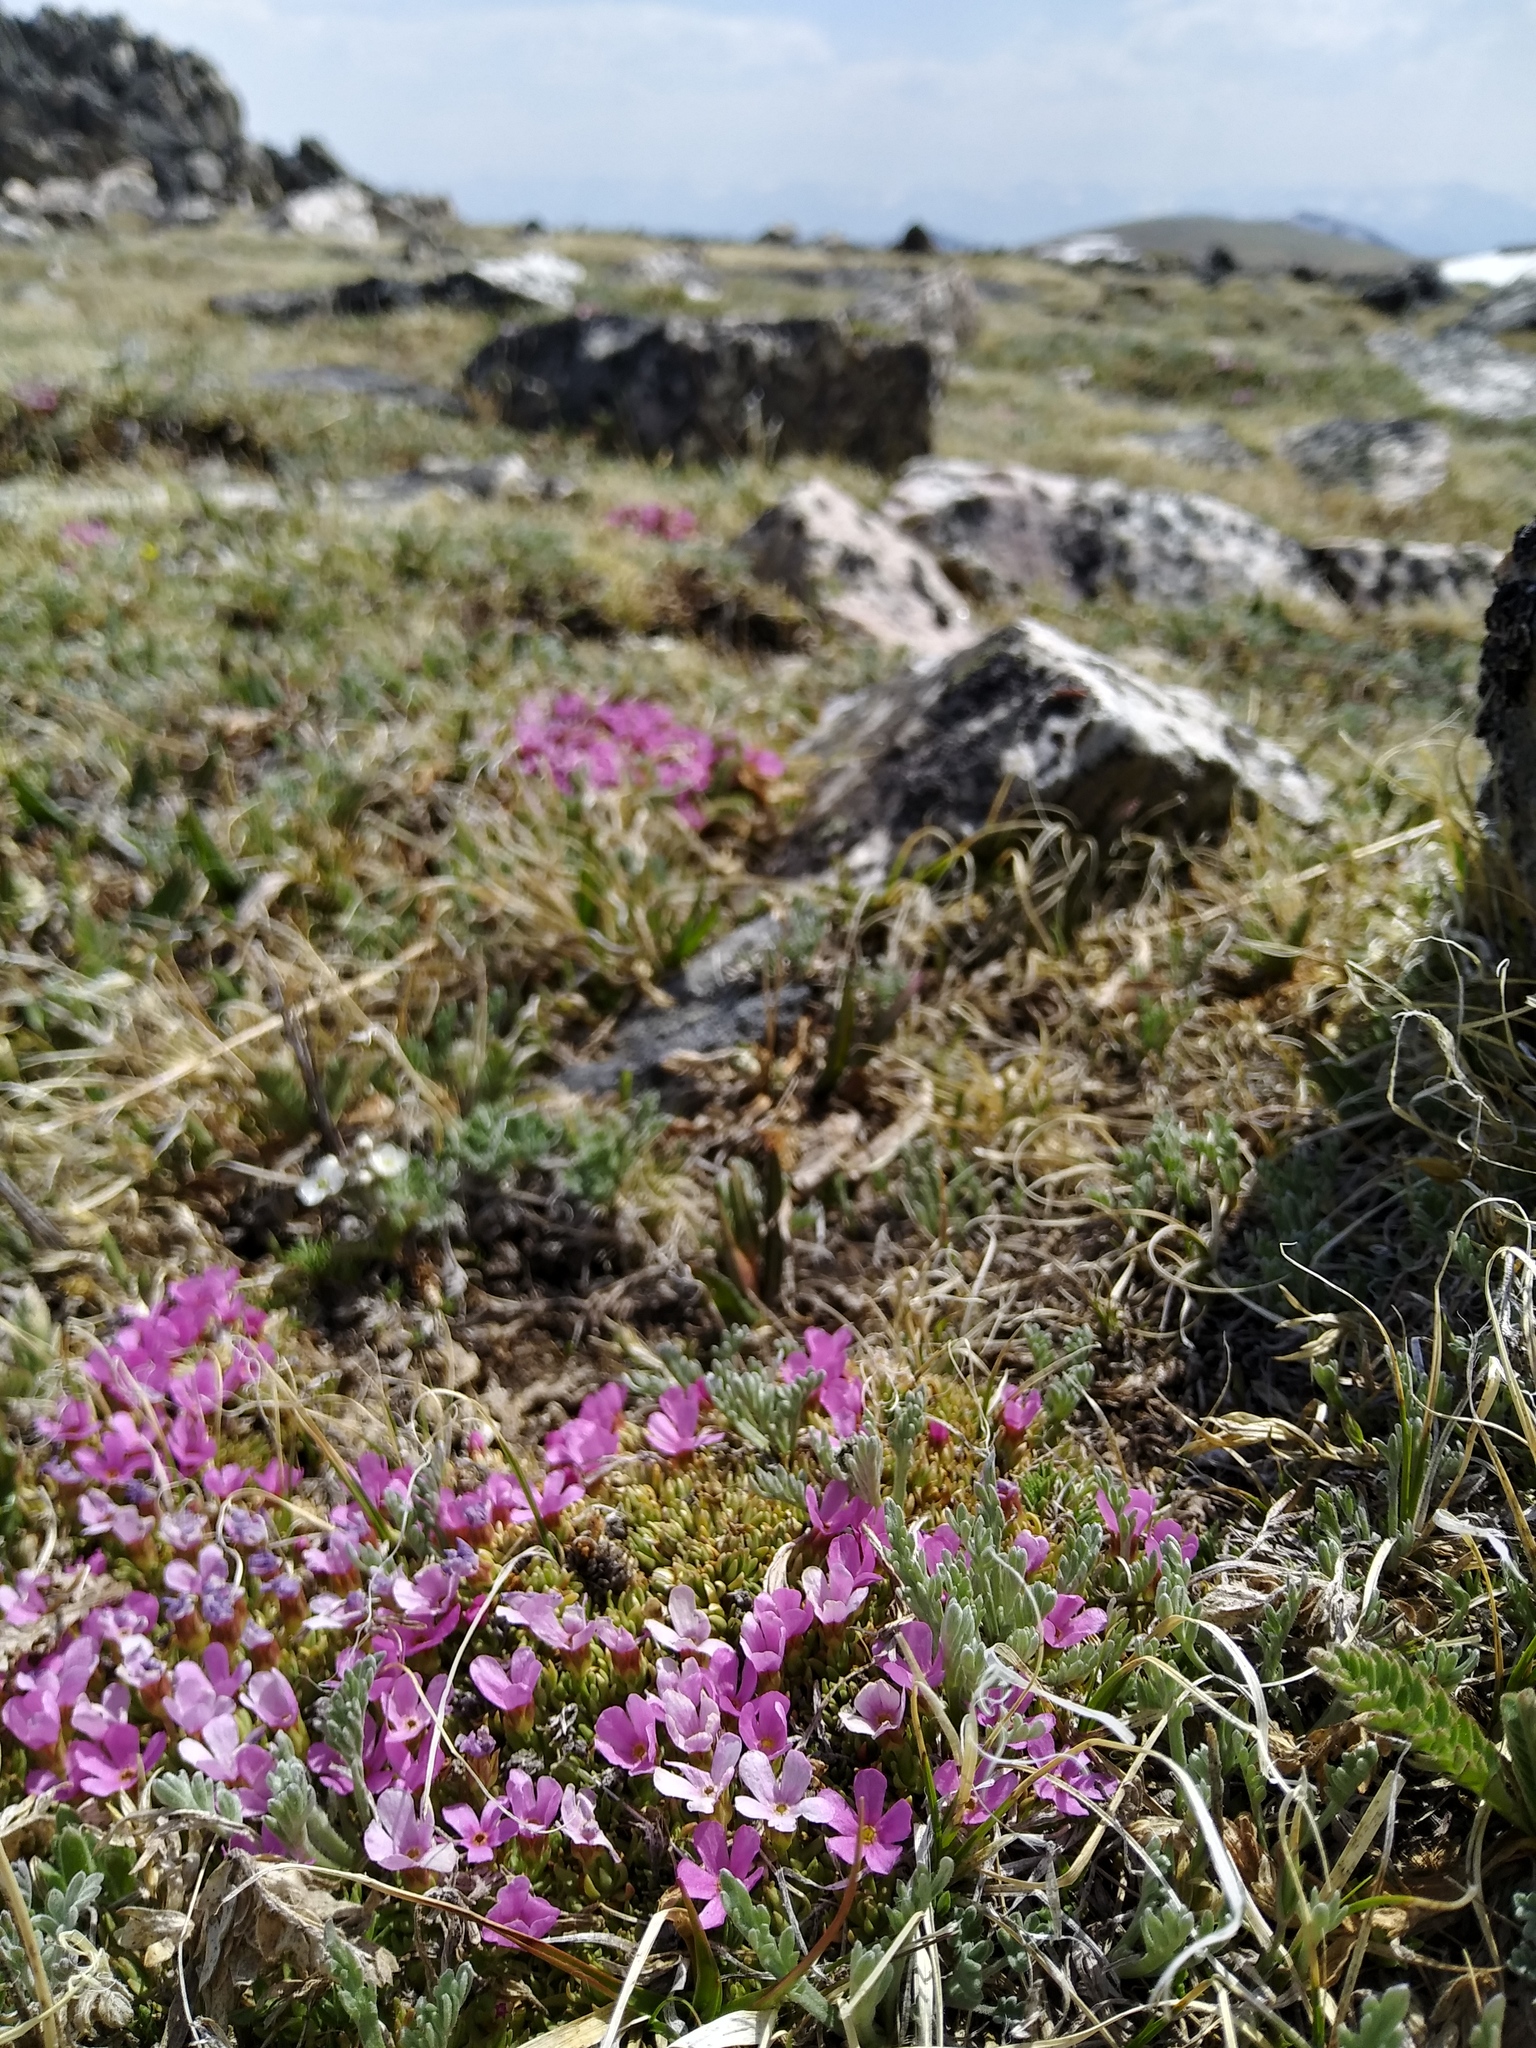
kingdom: Plantae
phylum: Tracheophyta
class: Magnoliopsida
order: Ericales
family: Primulaceae
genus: Androsace
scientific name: Androsace montana
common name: Rocky mountain dwarf-primrose
